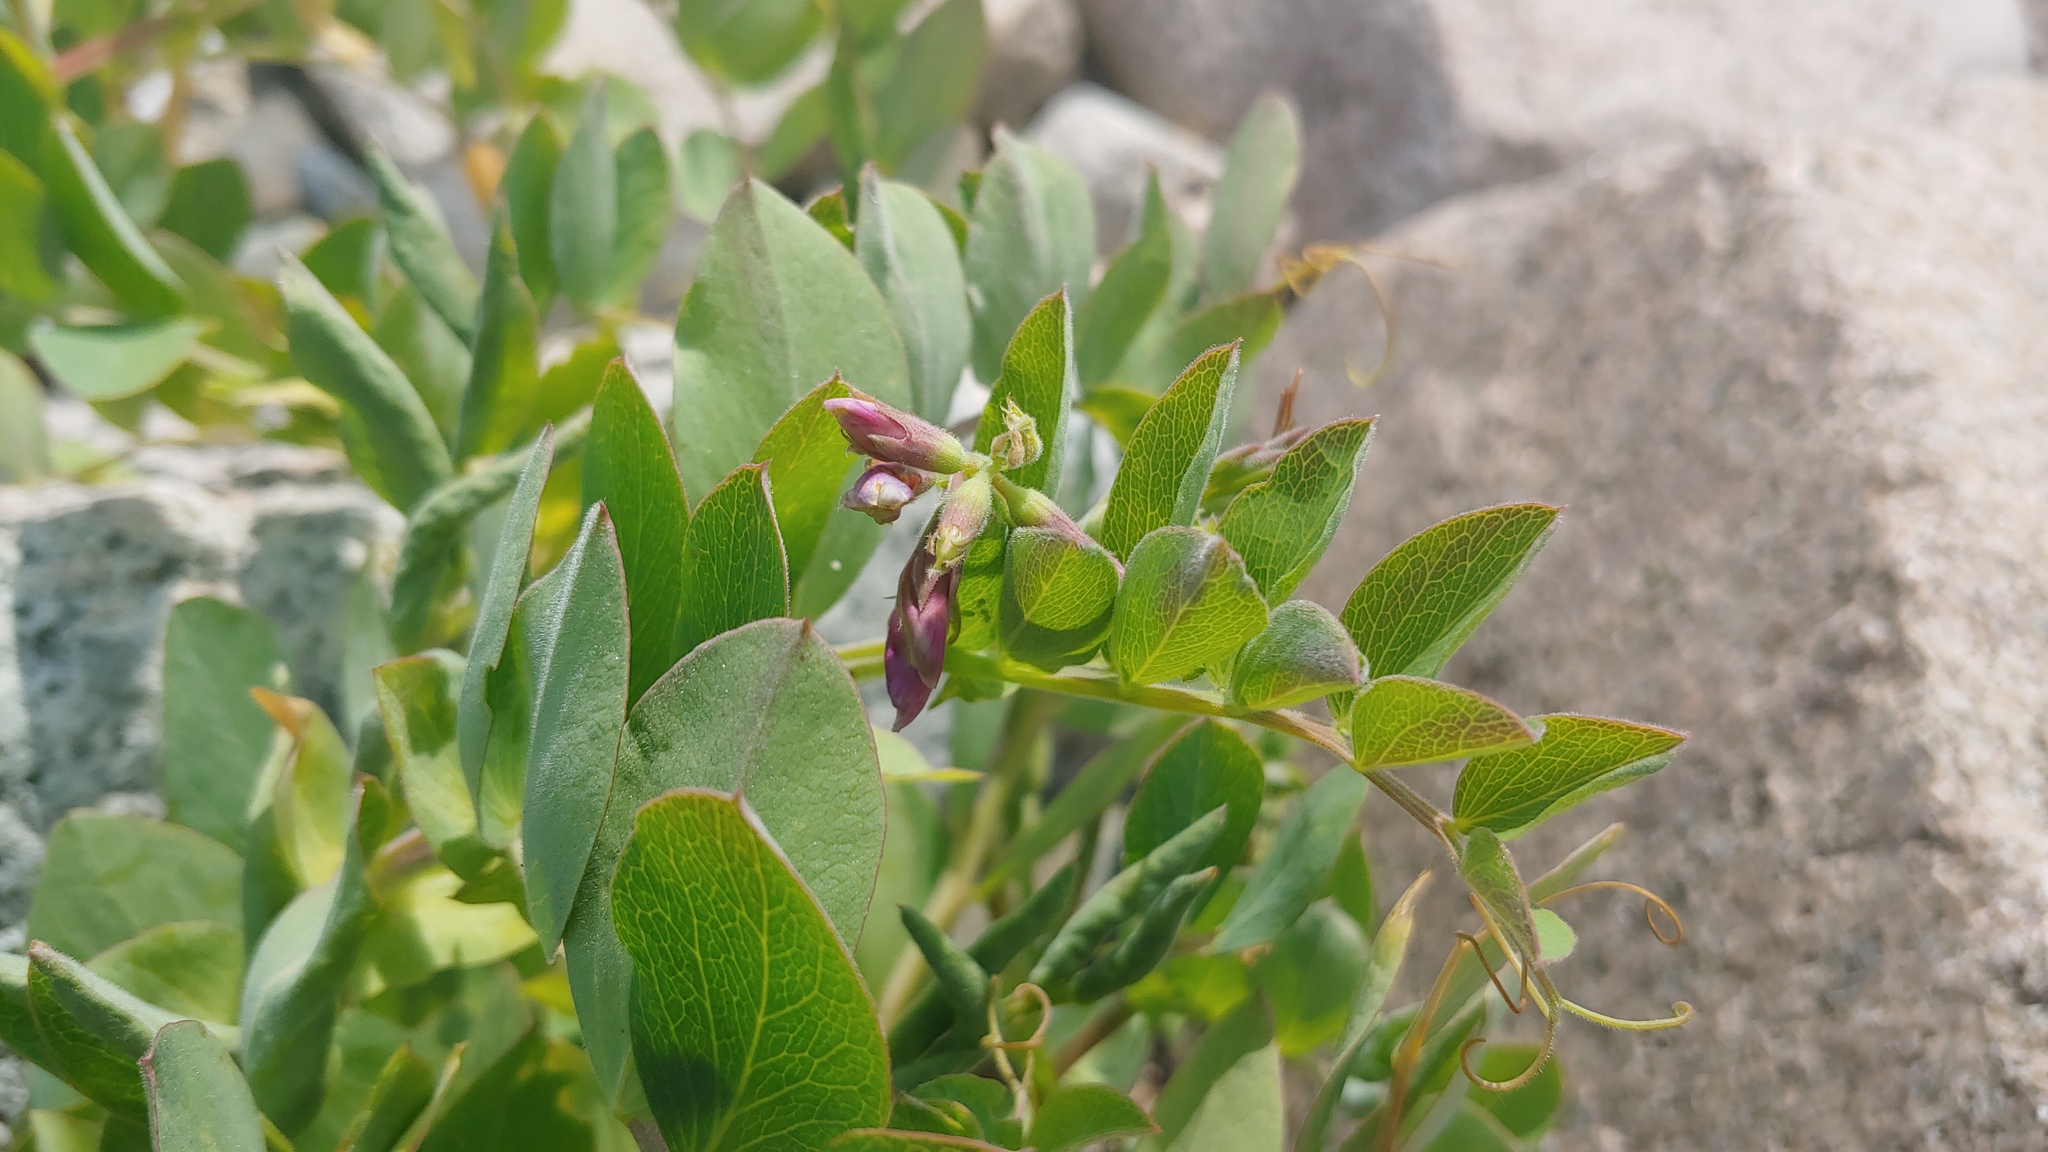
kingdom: Plantae
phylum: Tracheophyta
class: Magnoliopsida
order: Fabales
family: Fabaceae
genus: Lathyrus
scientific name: Lathyrus japonicus
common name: Sea pea
